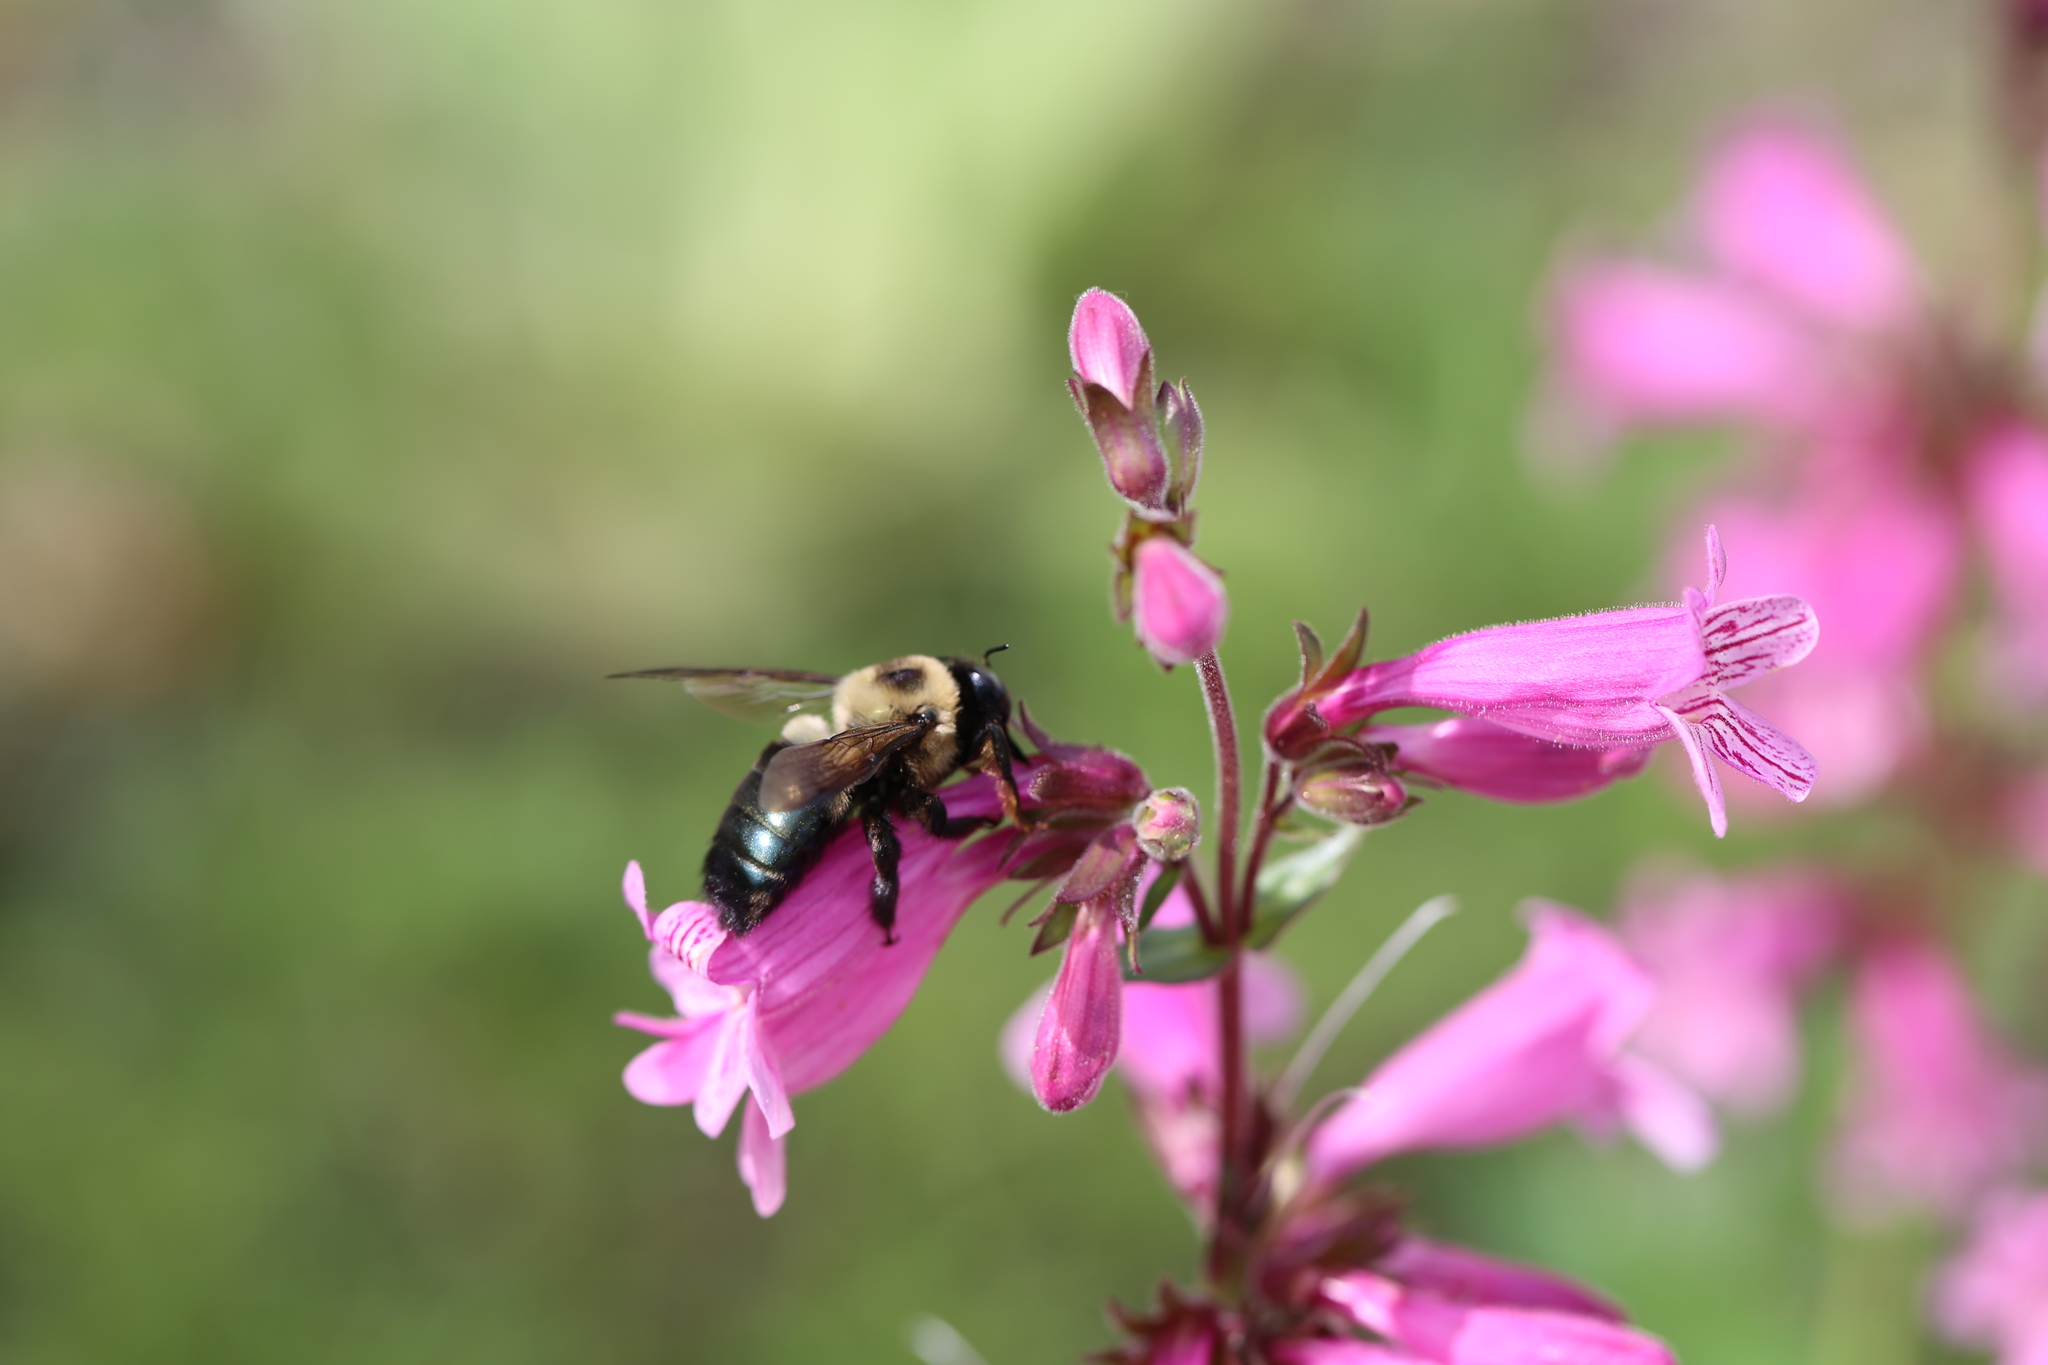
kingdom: Animalia
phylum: Arthropoda
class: Insecta
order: Hymenoptera
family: Apidae
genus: Xylocopa
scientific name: Xylocopa virginica
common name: Carpenter bee
